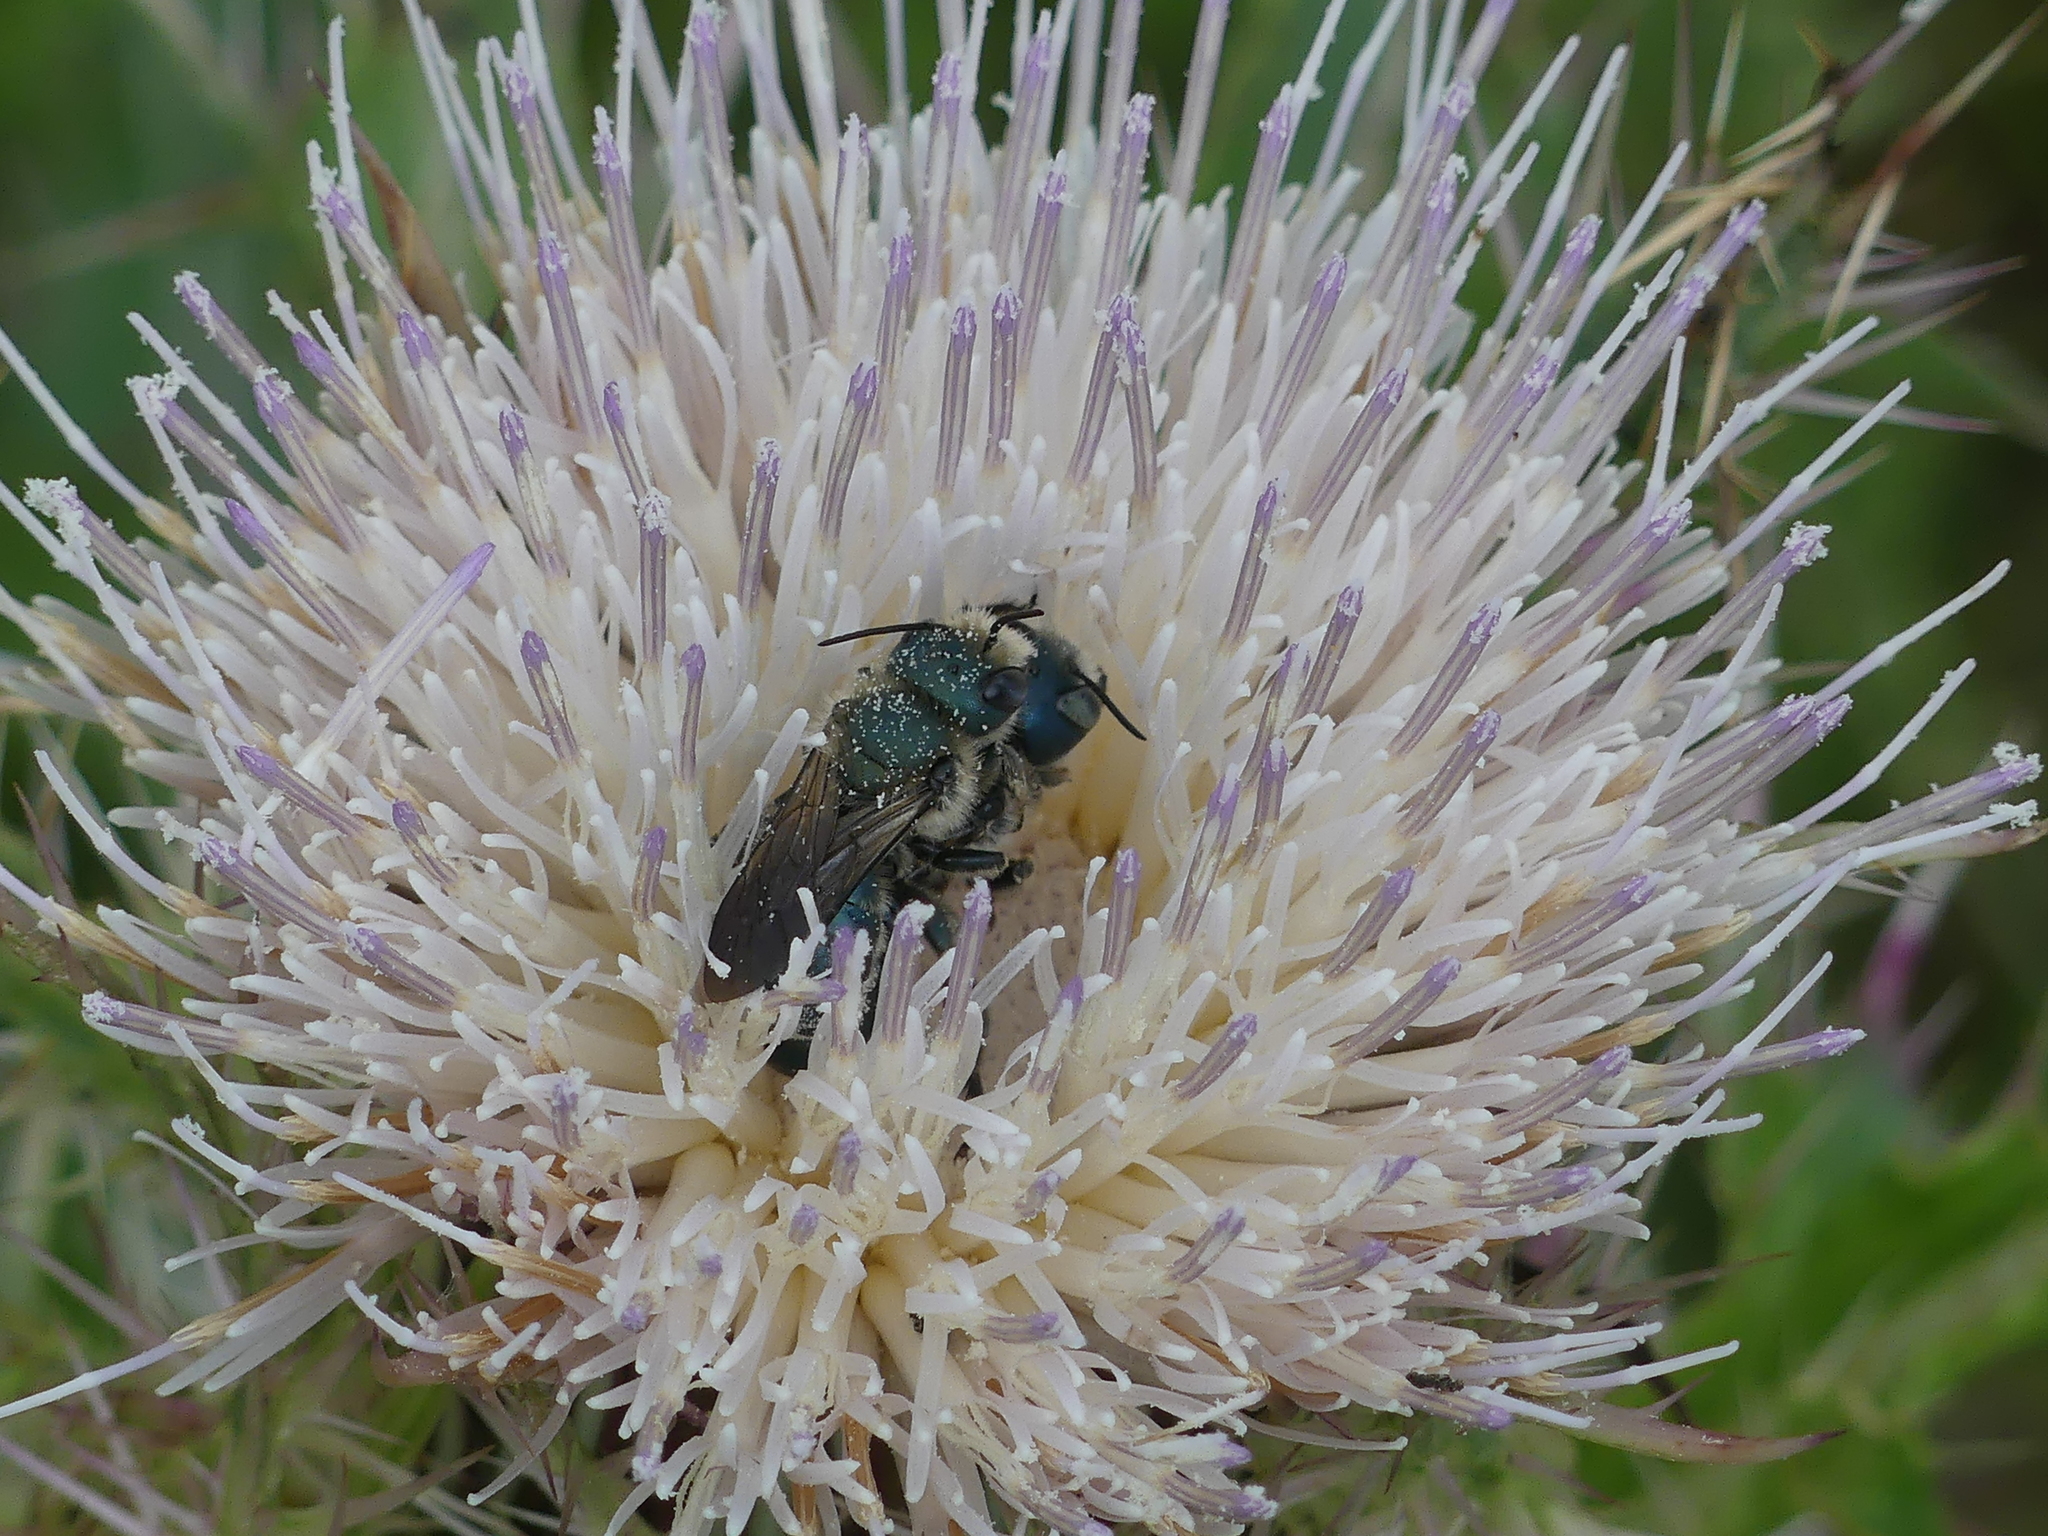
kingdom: Animalia
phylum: Arthropoda
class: Insecta
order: Hymenoptera
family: Megachilidae
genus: Osmia
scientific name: Osmia chalybea
